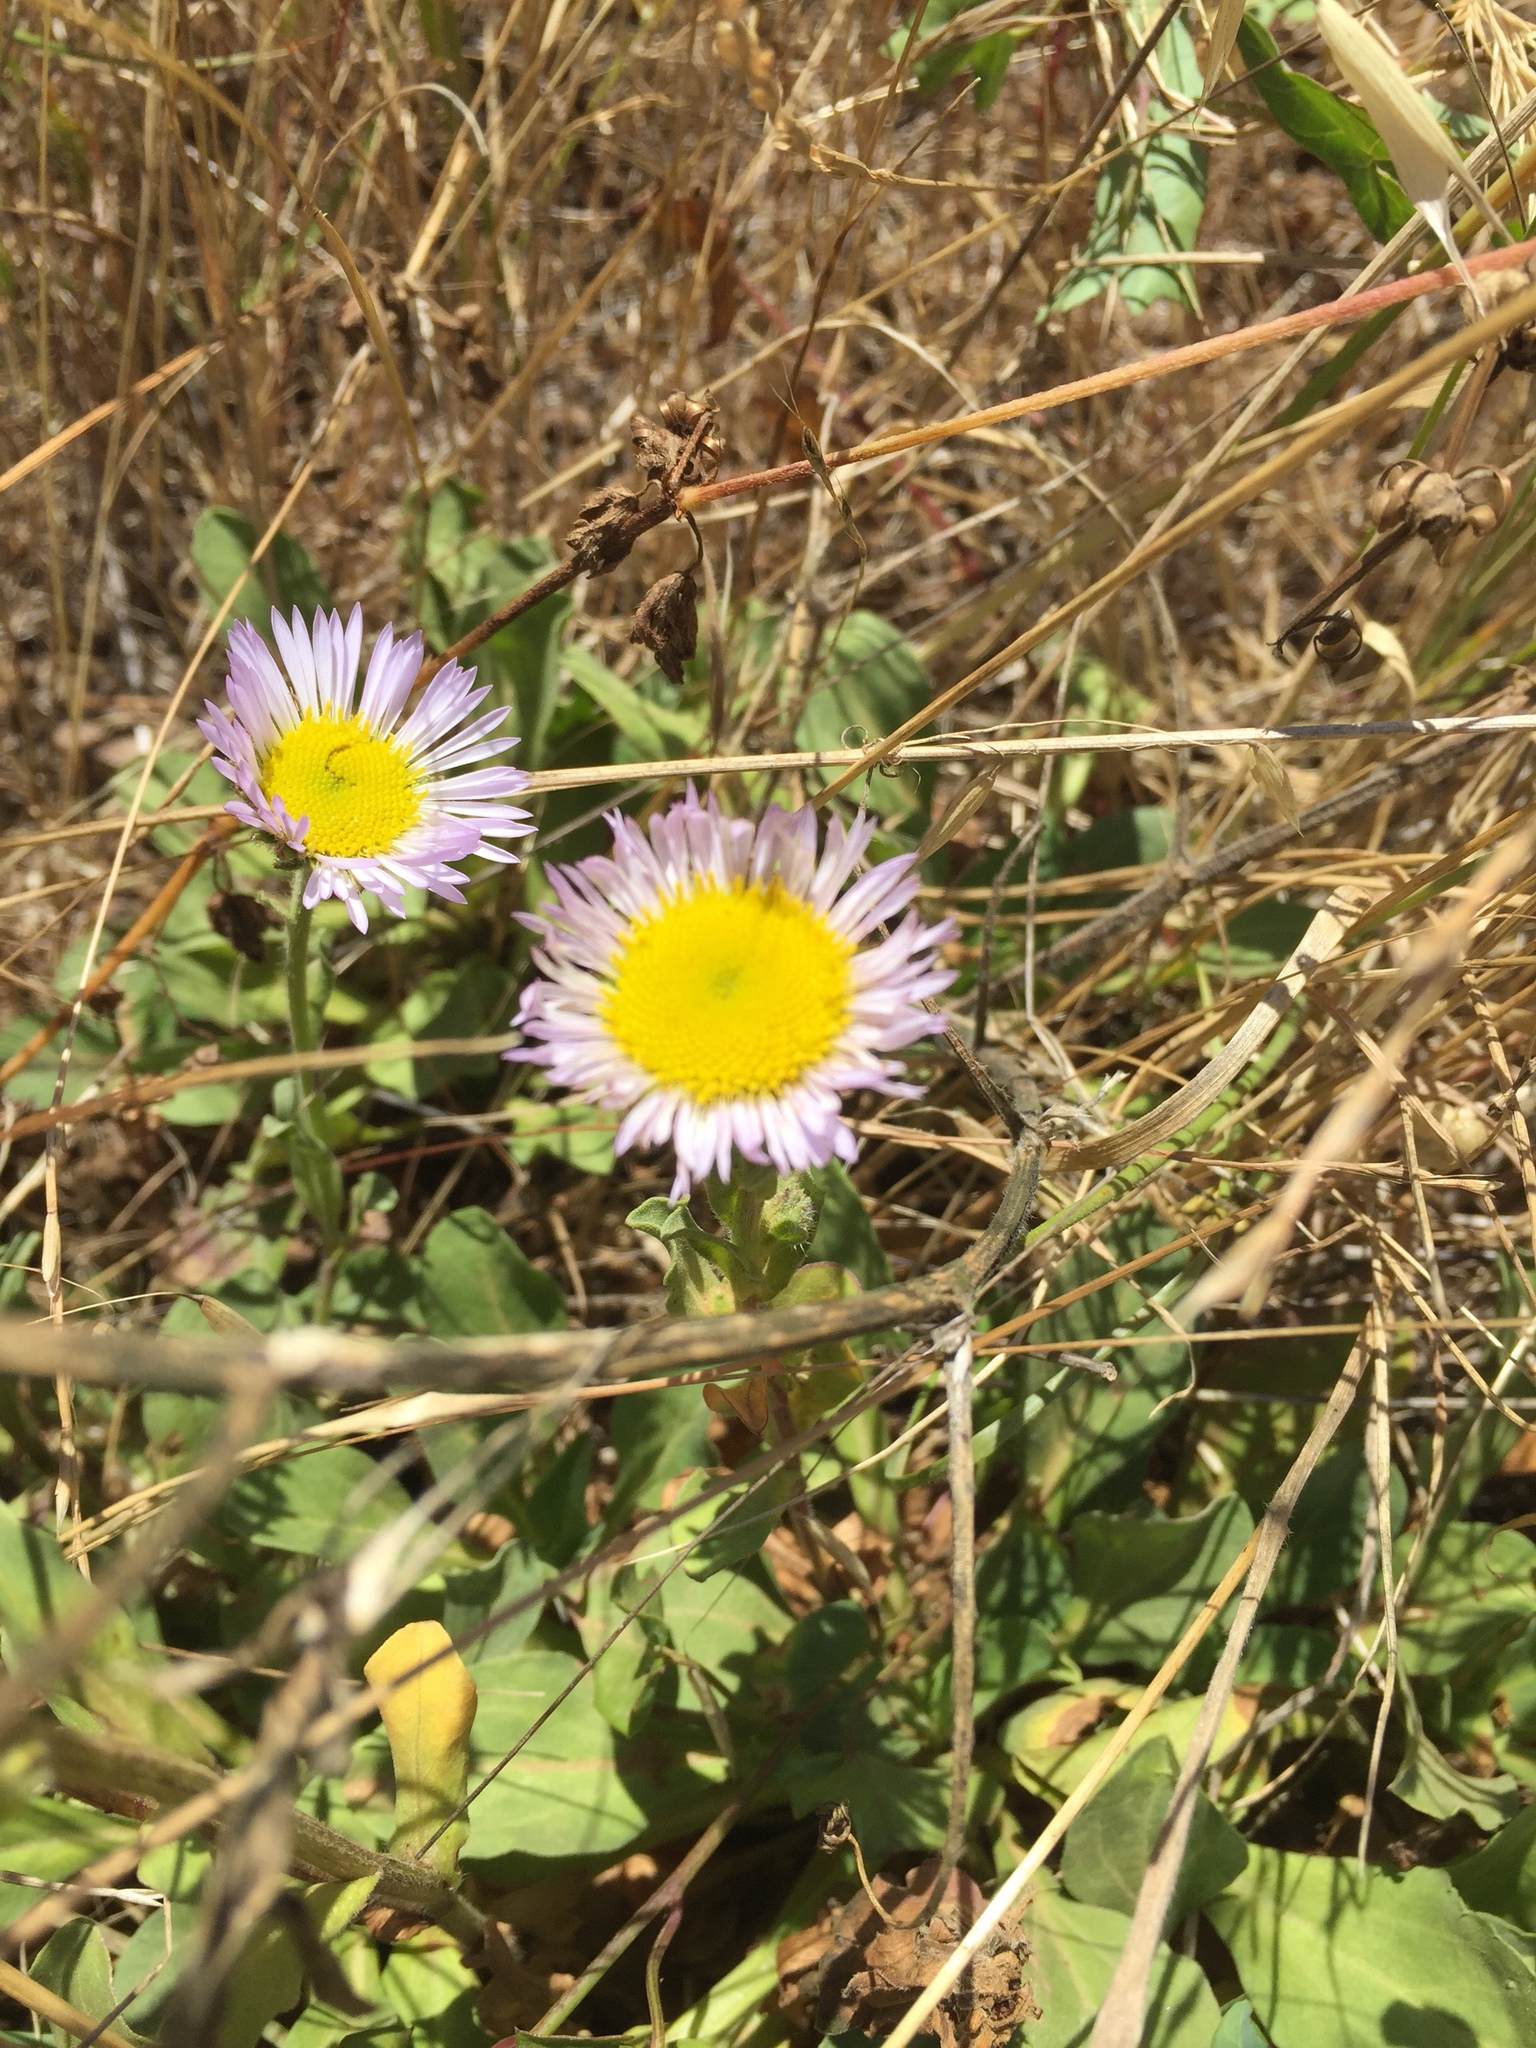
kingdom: Plantae
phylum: Tracheophyta
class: Magnoliopsida
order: Asterales
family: Asteraceae
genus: Erigeron
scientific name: Erigeron glaucus
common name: Seaside daisy
